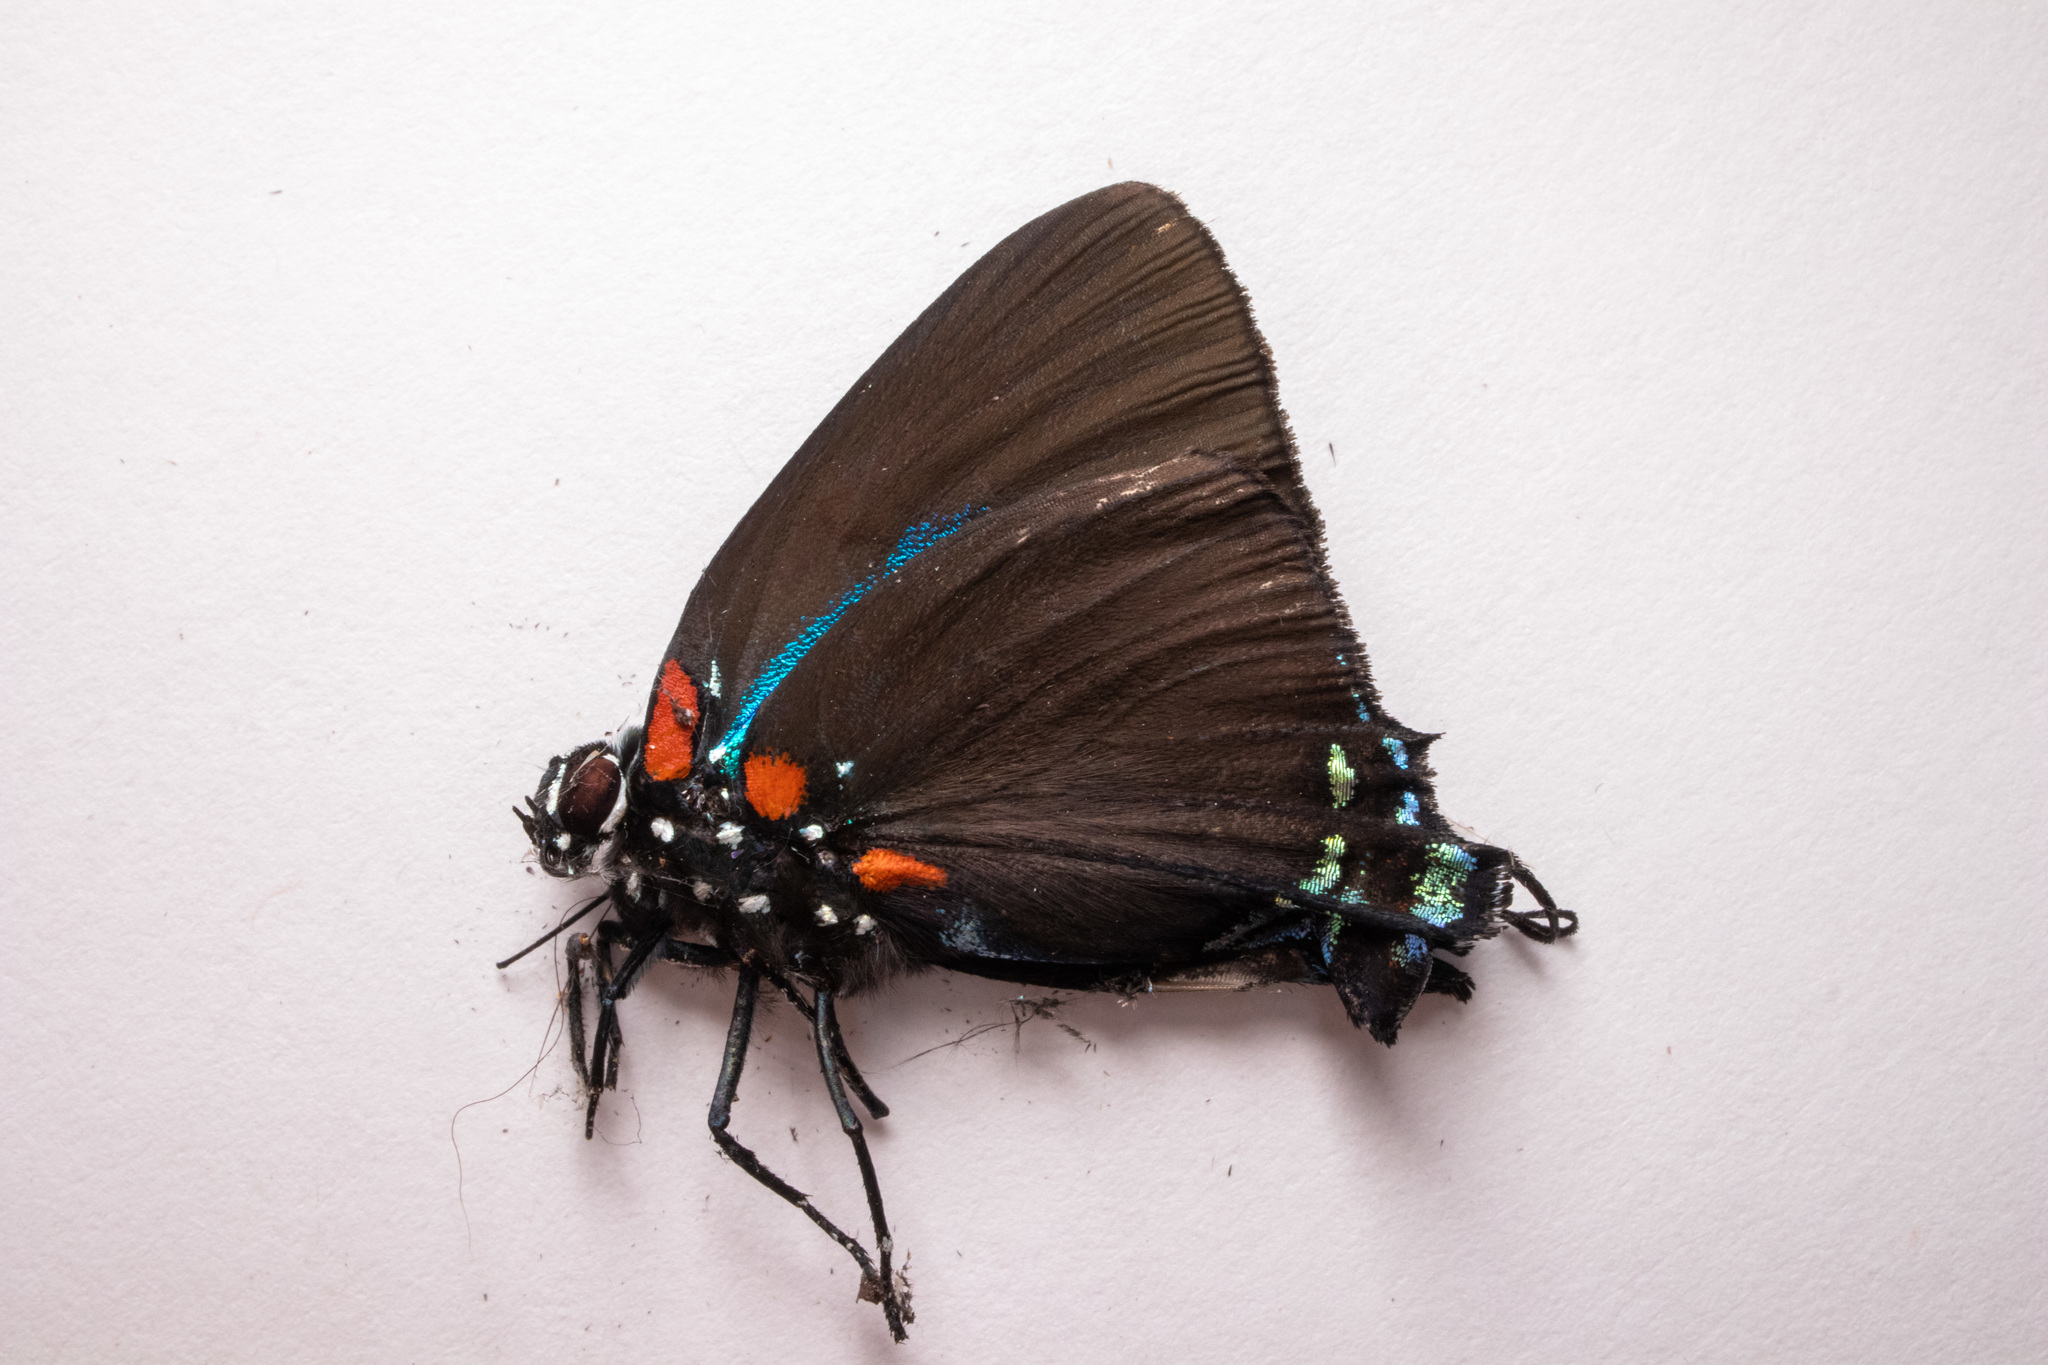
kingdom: Animalia
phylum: Arthropoda
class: Insecta
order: Lepidoptera
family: Lycaenidae
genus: Atlides
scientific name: Atlides halesus
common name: Great purple hairstreak
